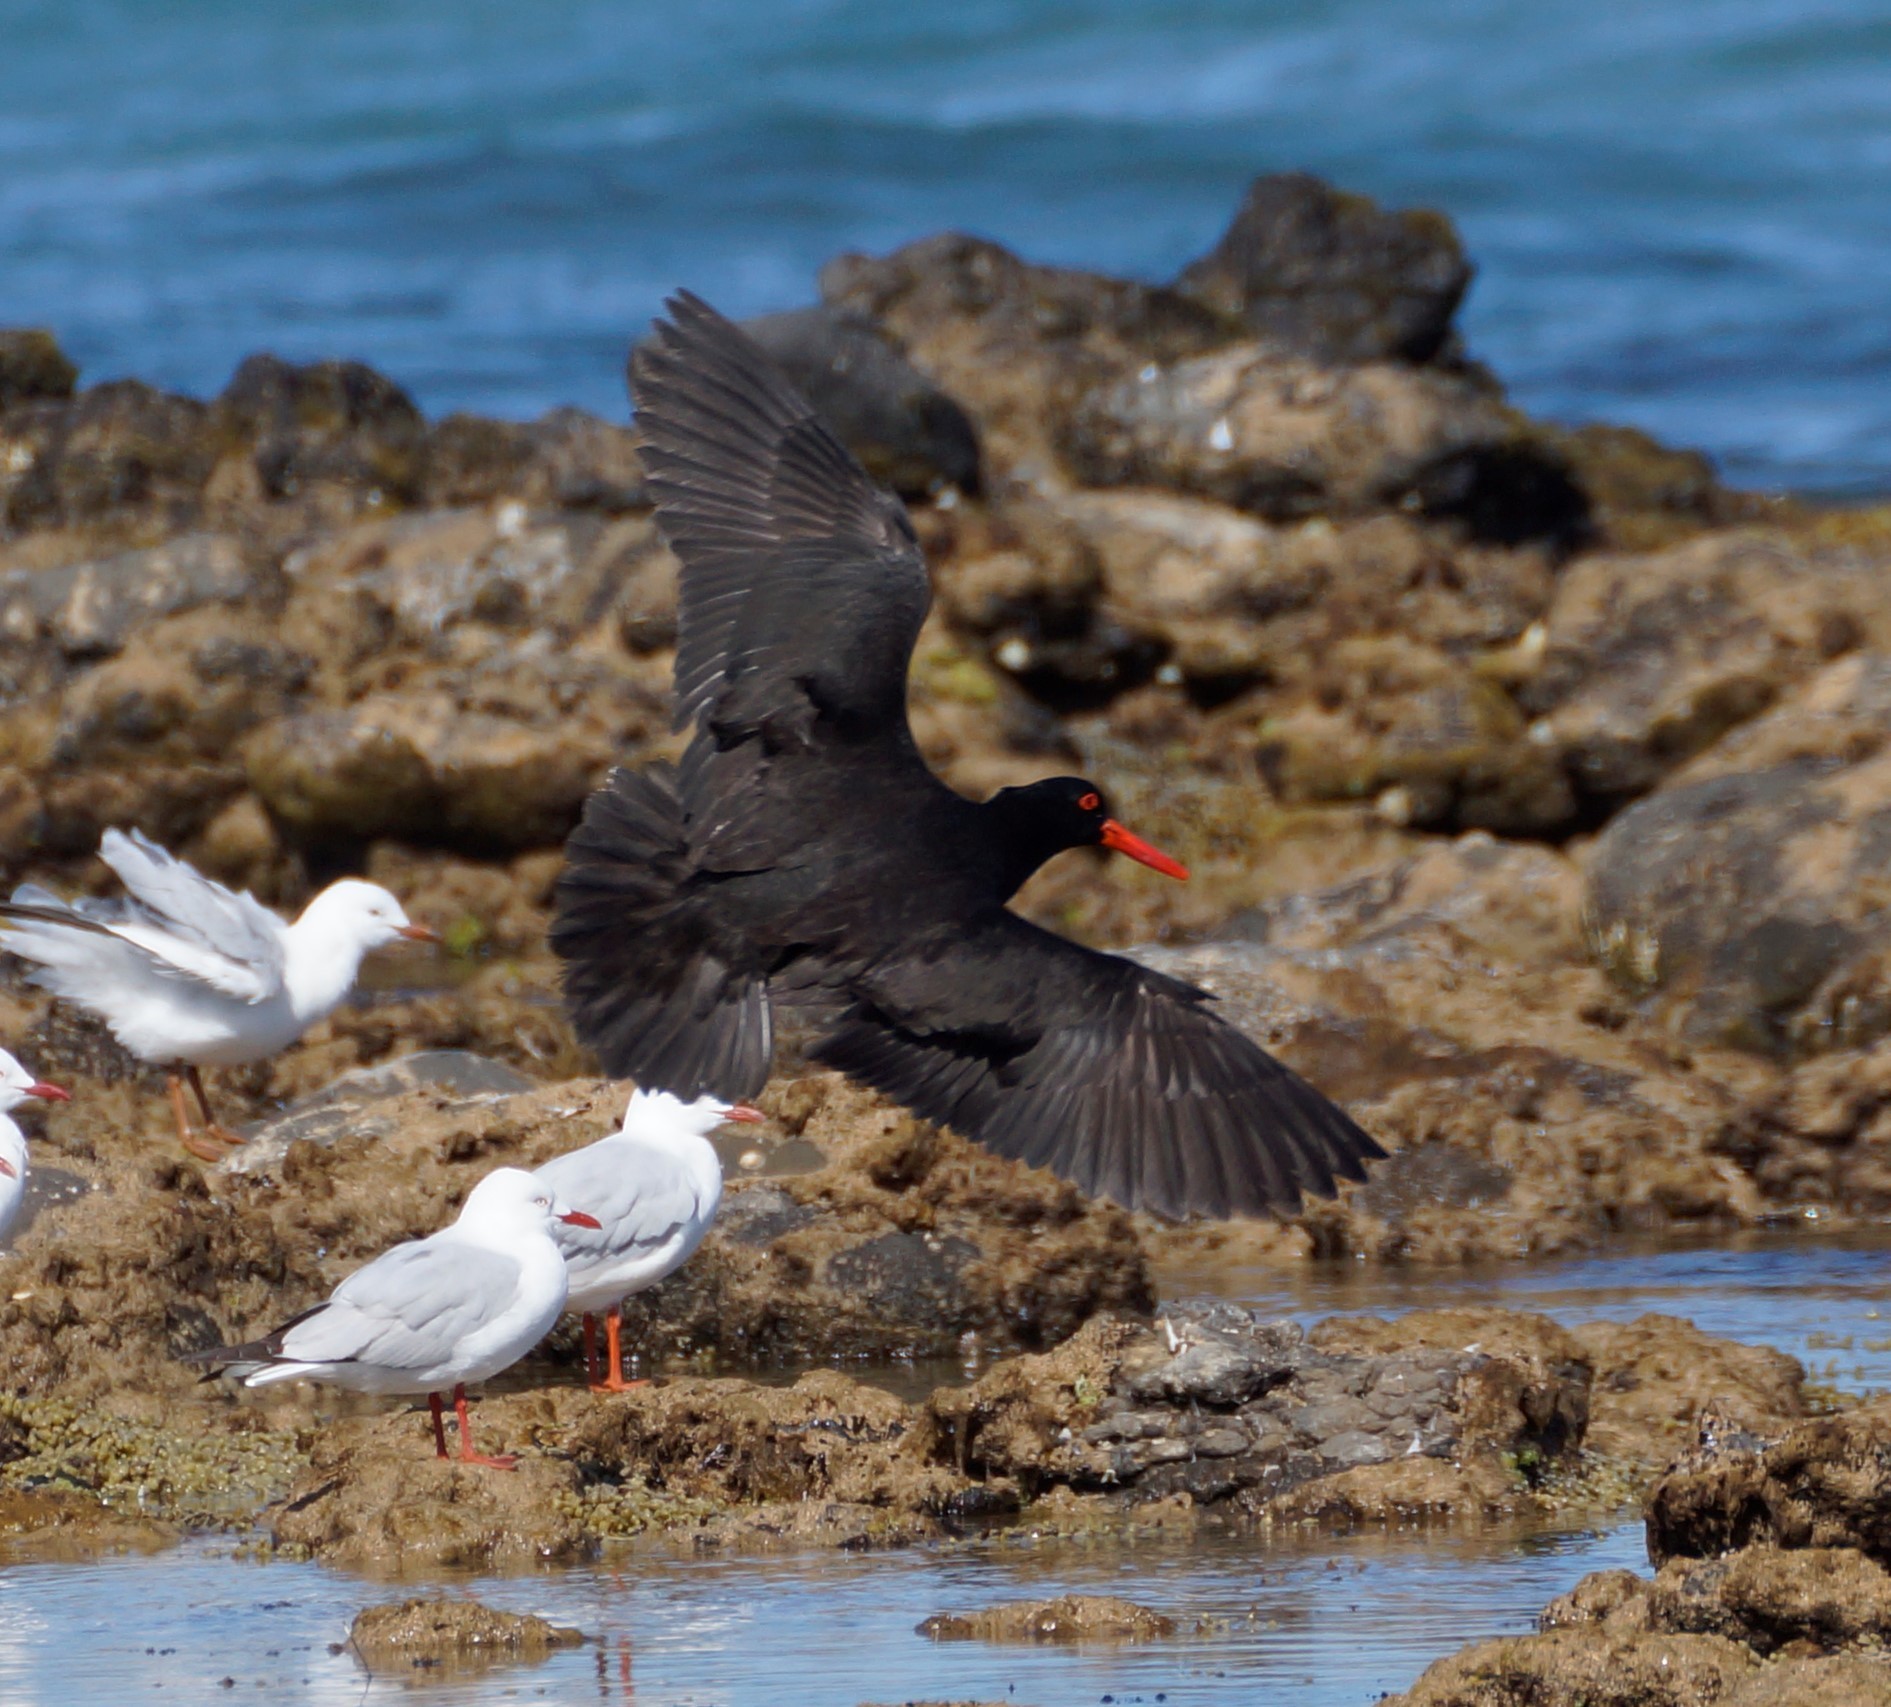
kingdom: Animalia
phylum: Chordata
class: Aves
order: Charadriiformes
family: Haematopodidae
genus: Haematopus
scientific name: Haematopus fuliginosus
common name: Sooty oystercatcher
